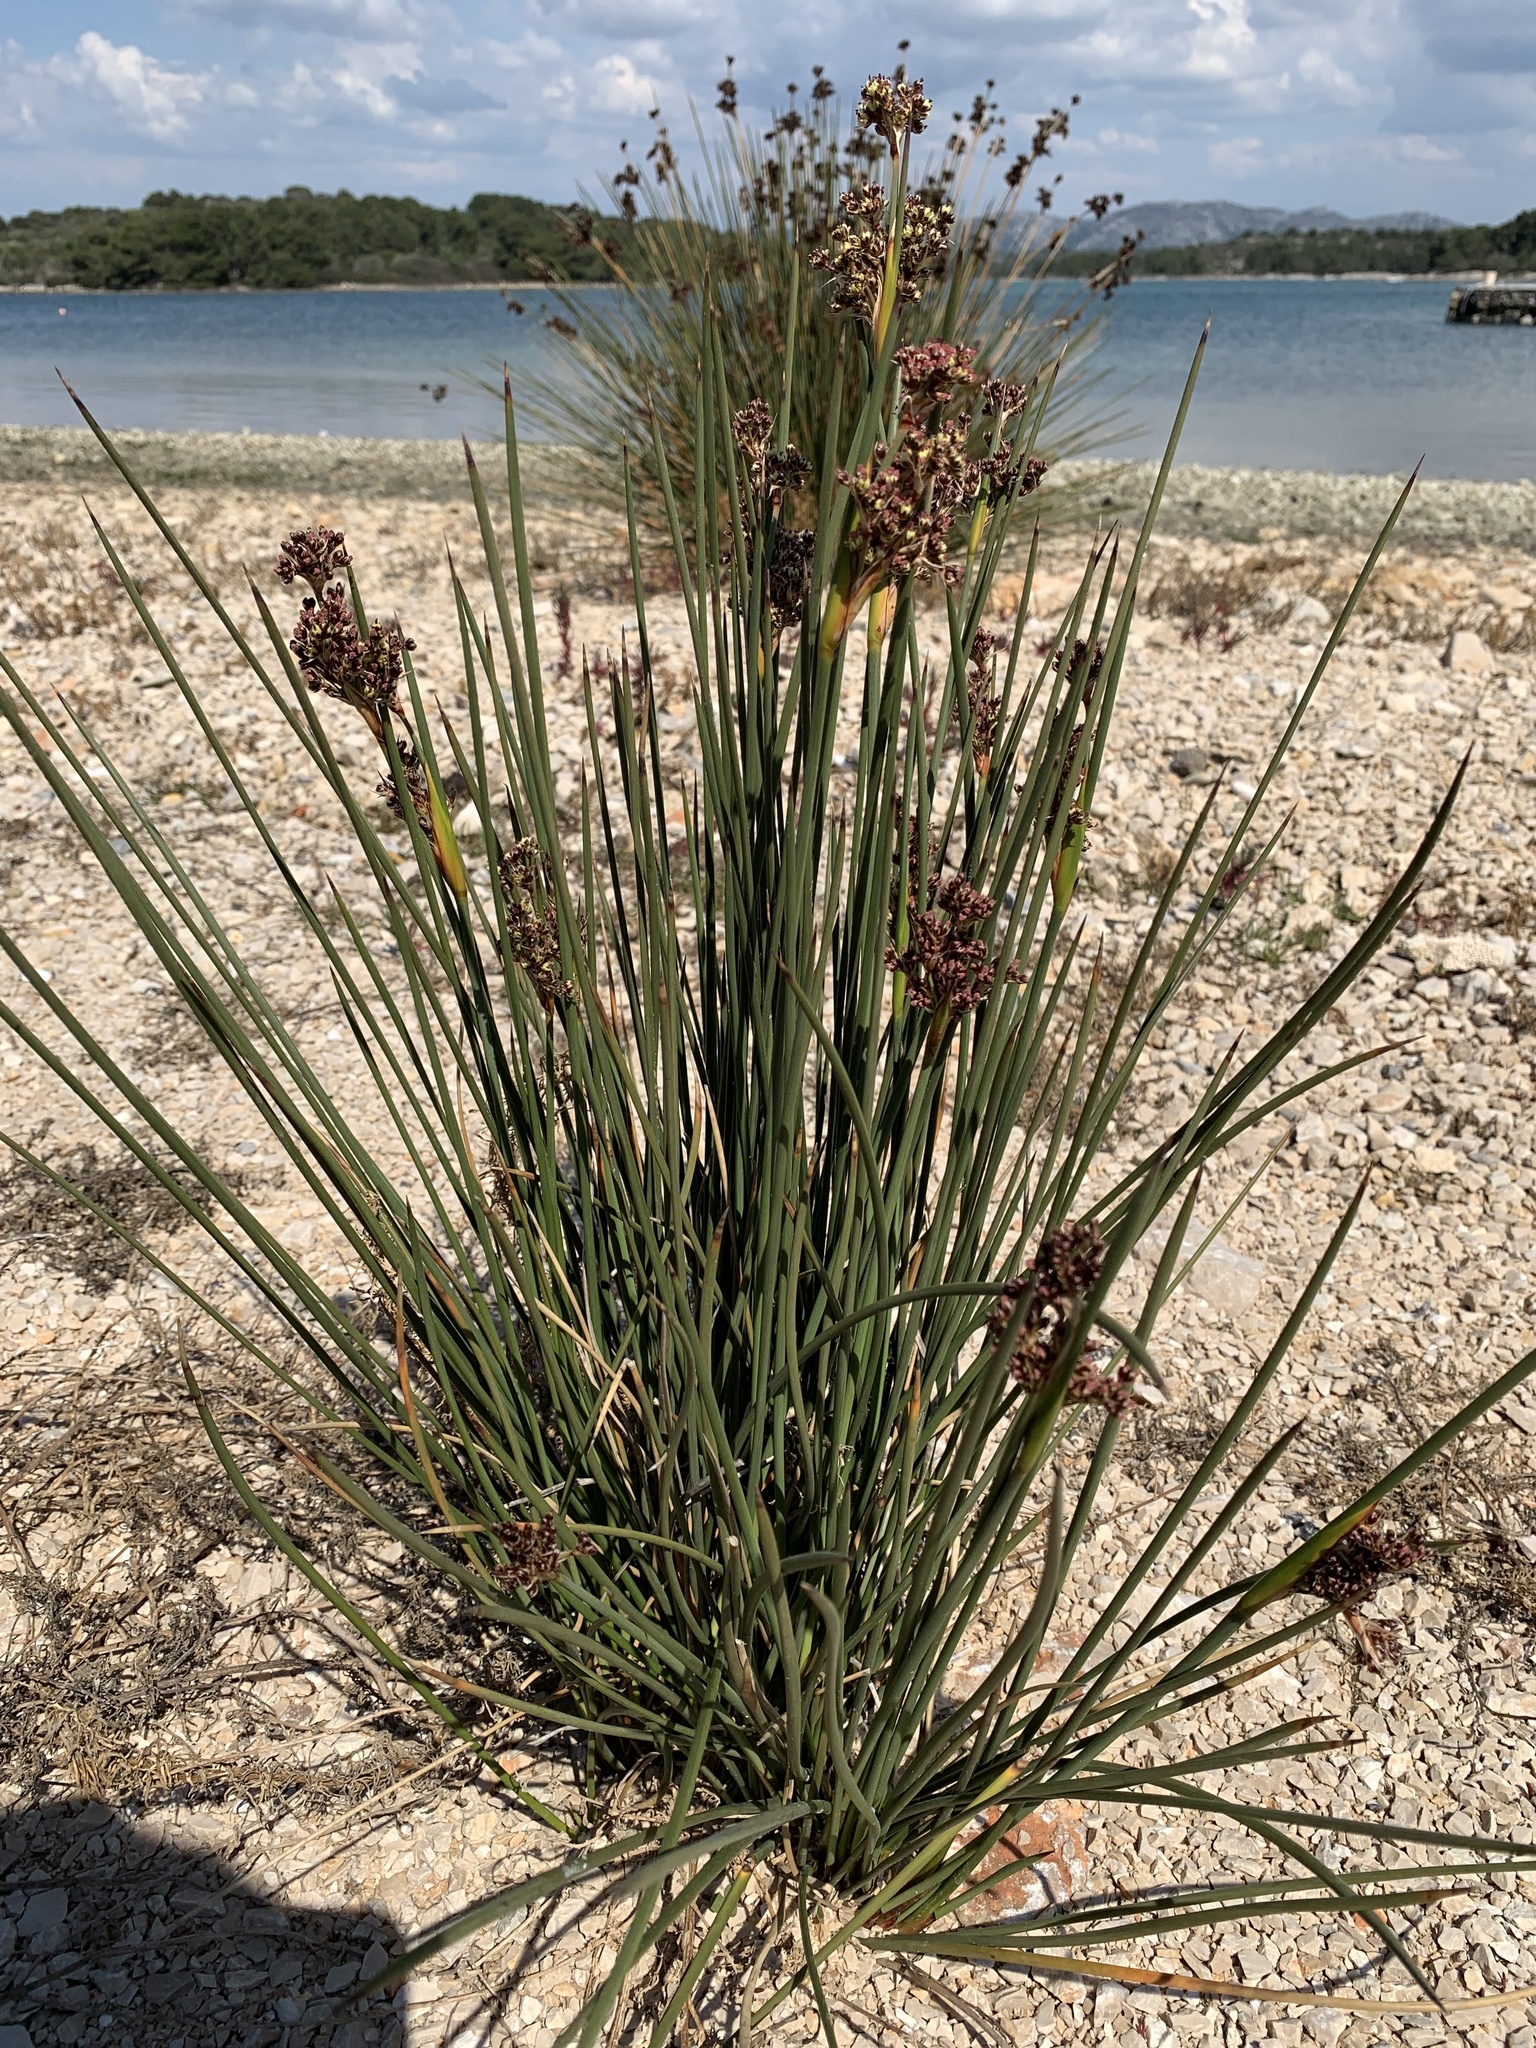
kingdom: Plantae
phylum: Tracheophyta
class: Liliopsida
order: Poales
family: Juncaceae
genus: Juncus
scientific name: Juncus acutus
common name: Sharp rush
